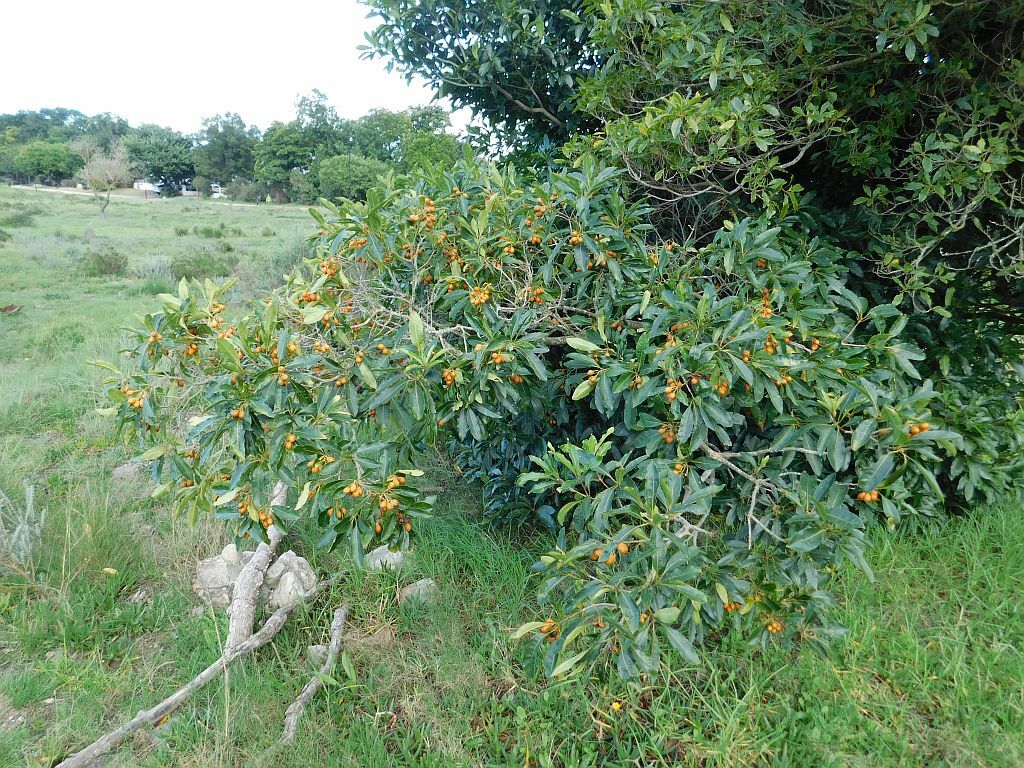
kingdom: Plantae
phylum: Tracheophyta
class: Magnoliopsida
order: Apiales
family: Pittosporaceae
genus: Pittosporum
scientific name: Pittosporum undulatum
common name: Australian cheesewood
